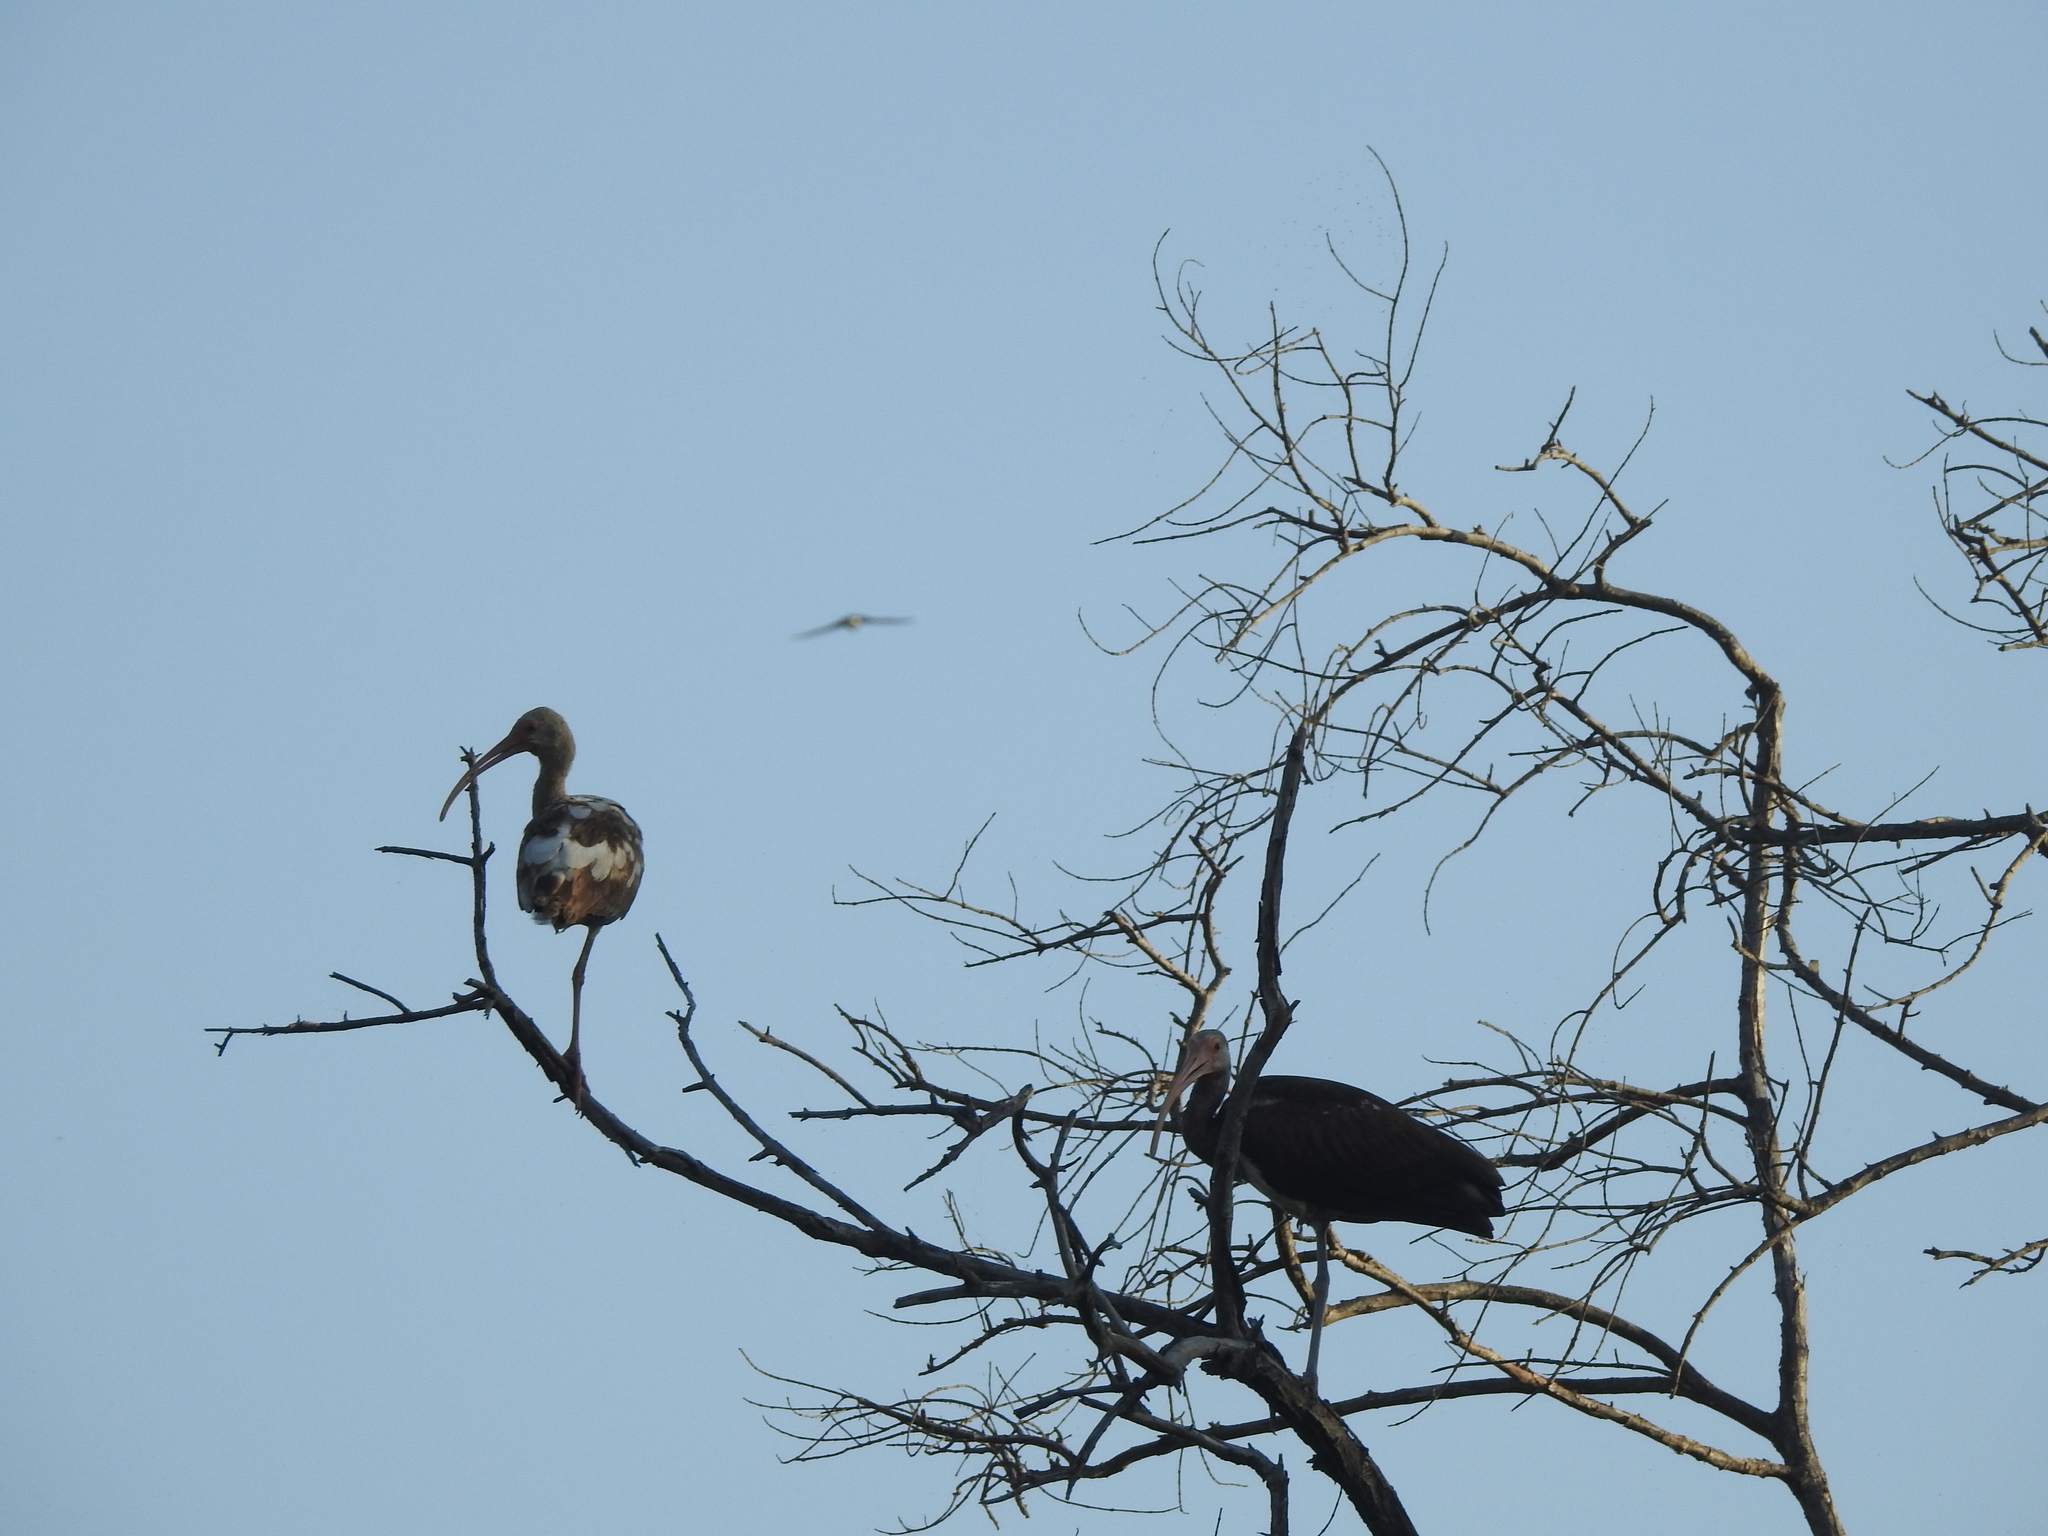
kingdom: Animalia
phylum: Chordata
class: Aves
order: Pelecaniformes
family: Threskiornithidae
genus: Eudocimus
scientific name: Eudocimus albus
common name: White ibis
